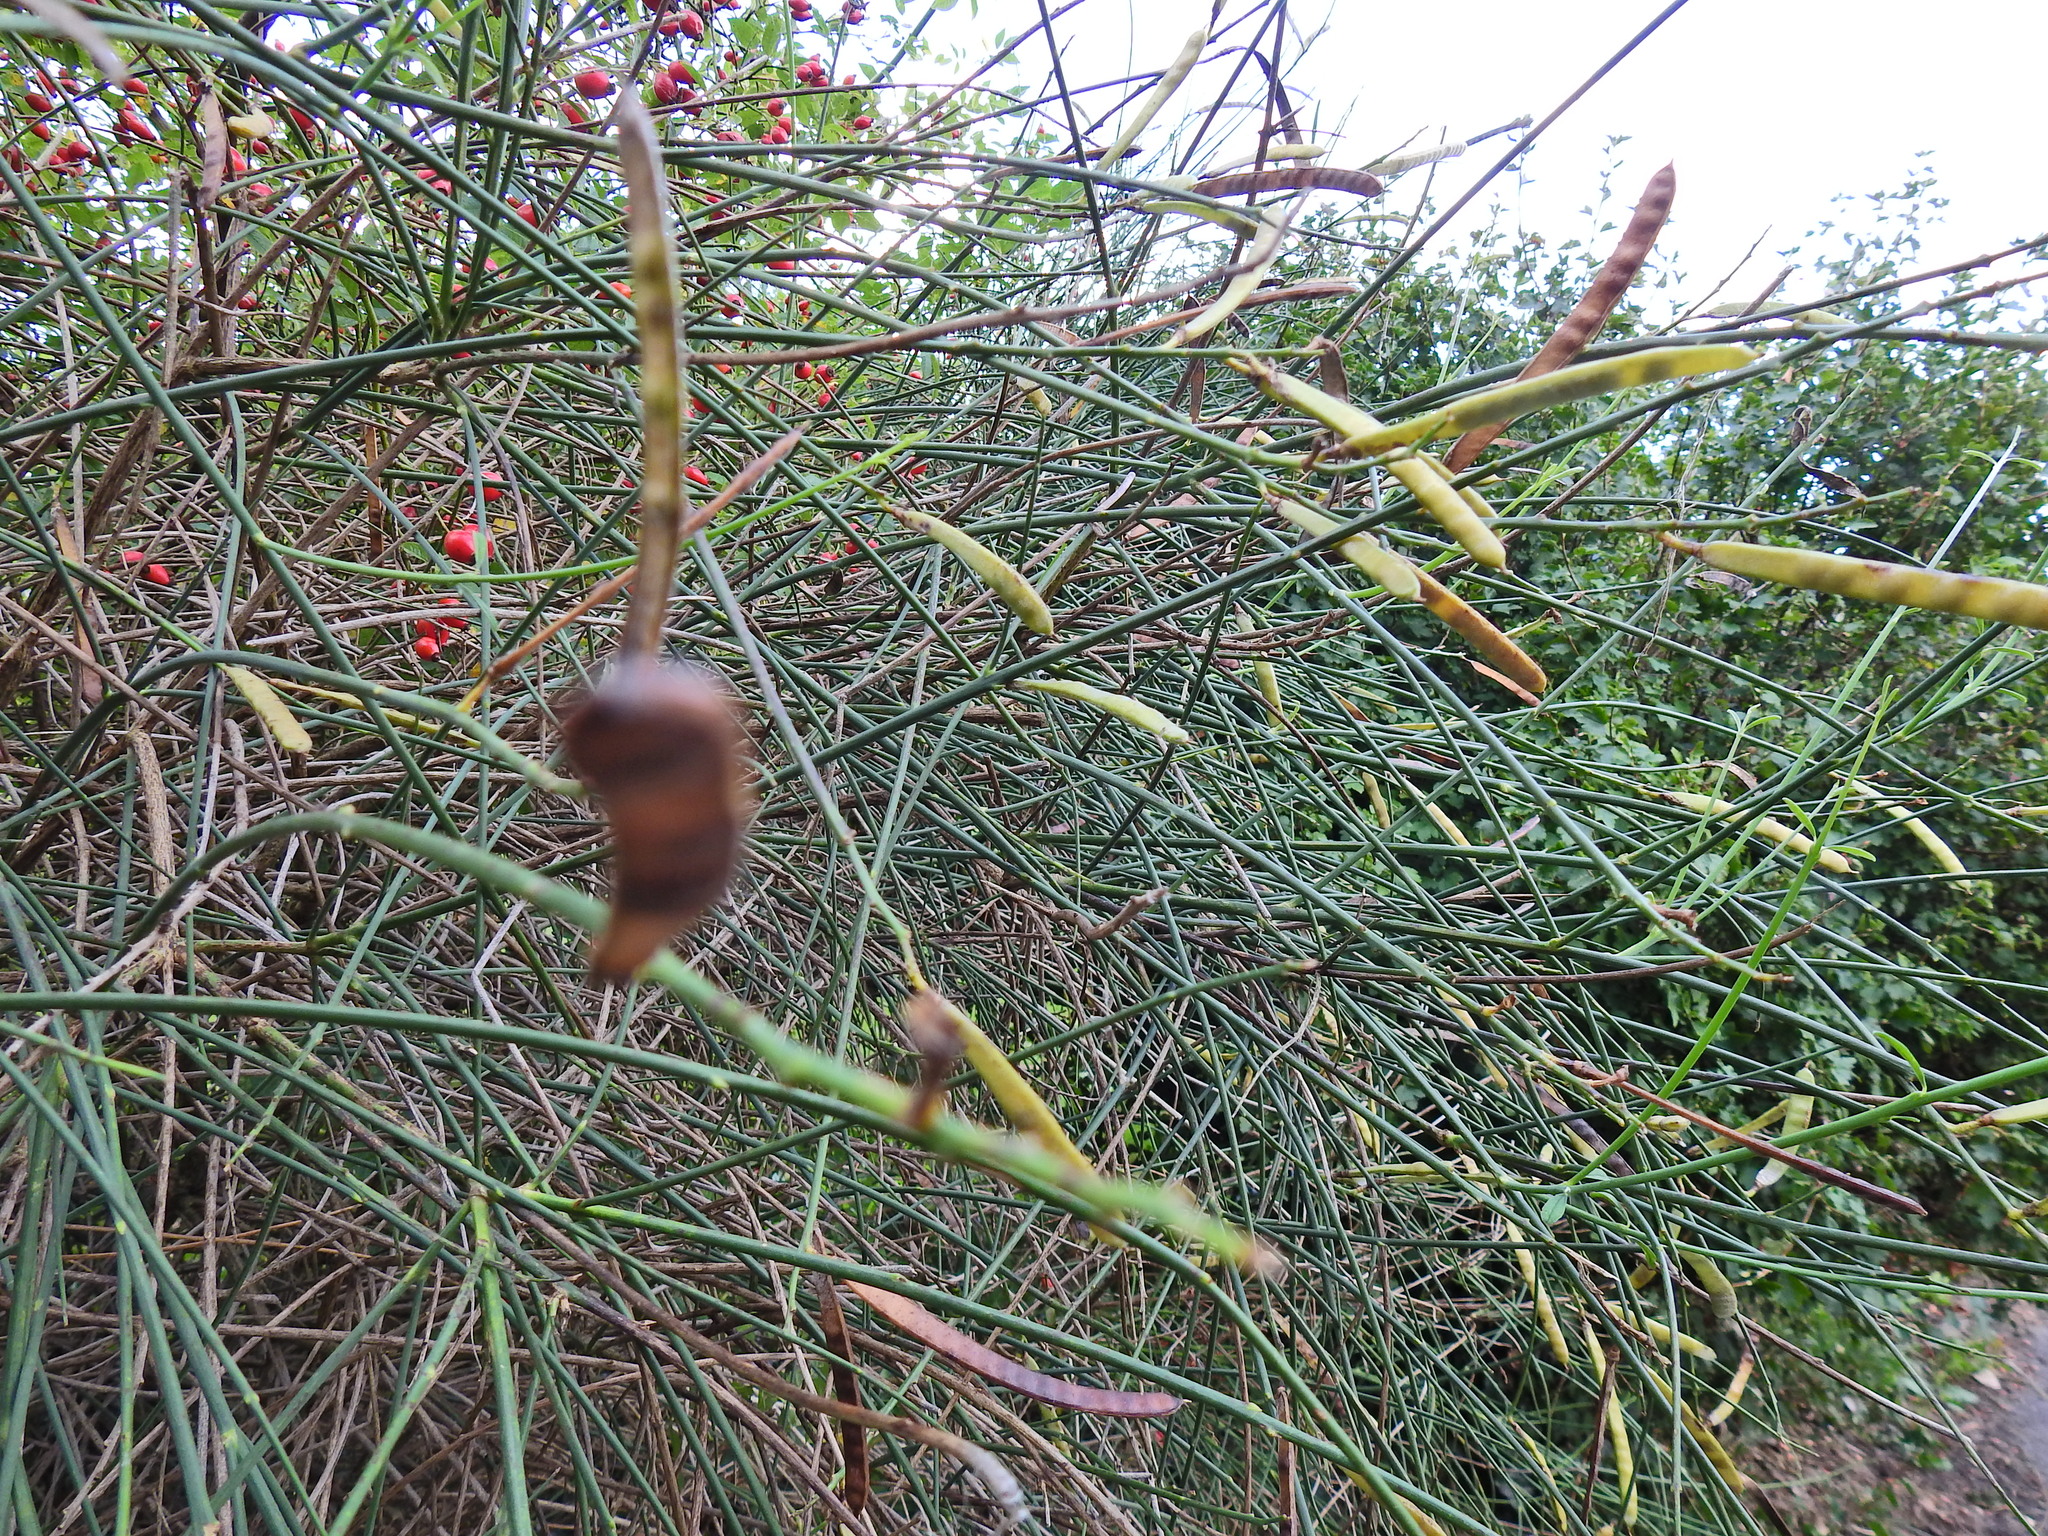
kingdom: Plantae
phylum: Tracheophyta
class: Magnoliopsida
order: Fabales
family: Fabaceae
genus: Spartium
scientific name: Spartium junceum
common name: Spanish broom
